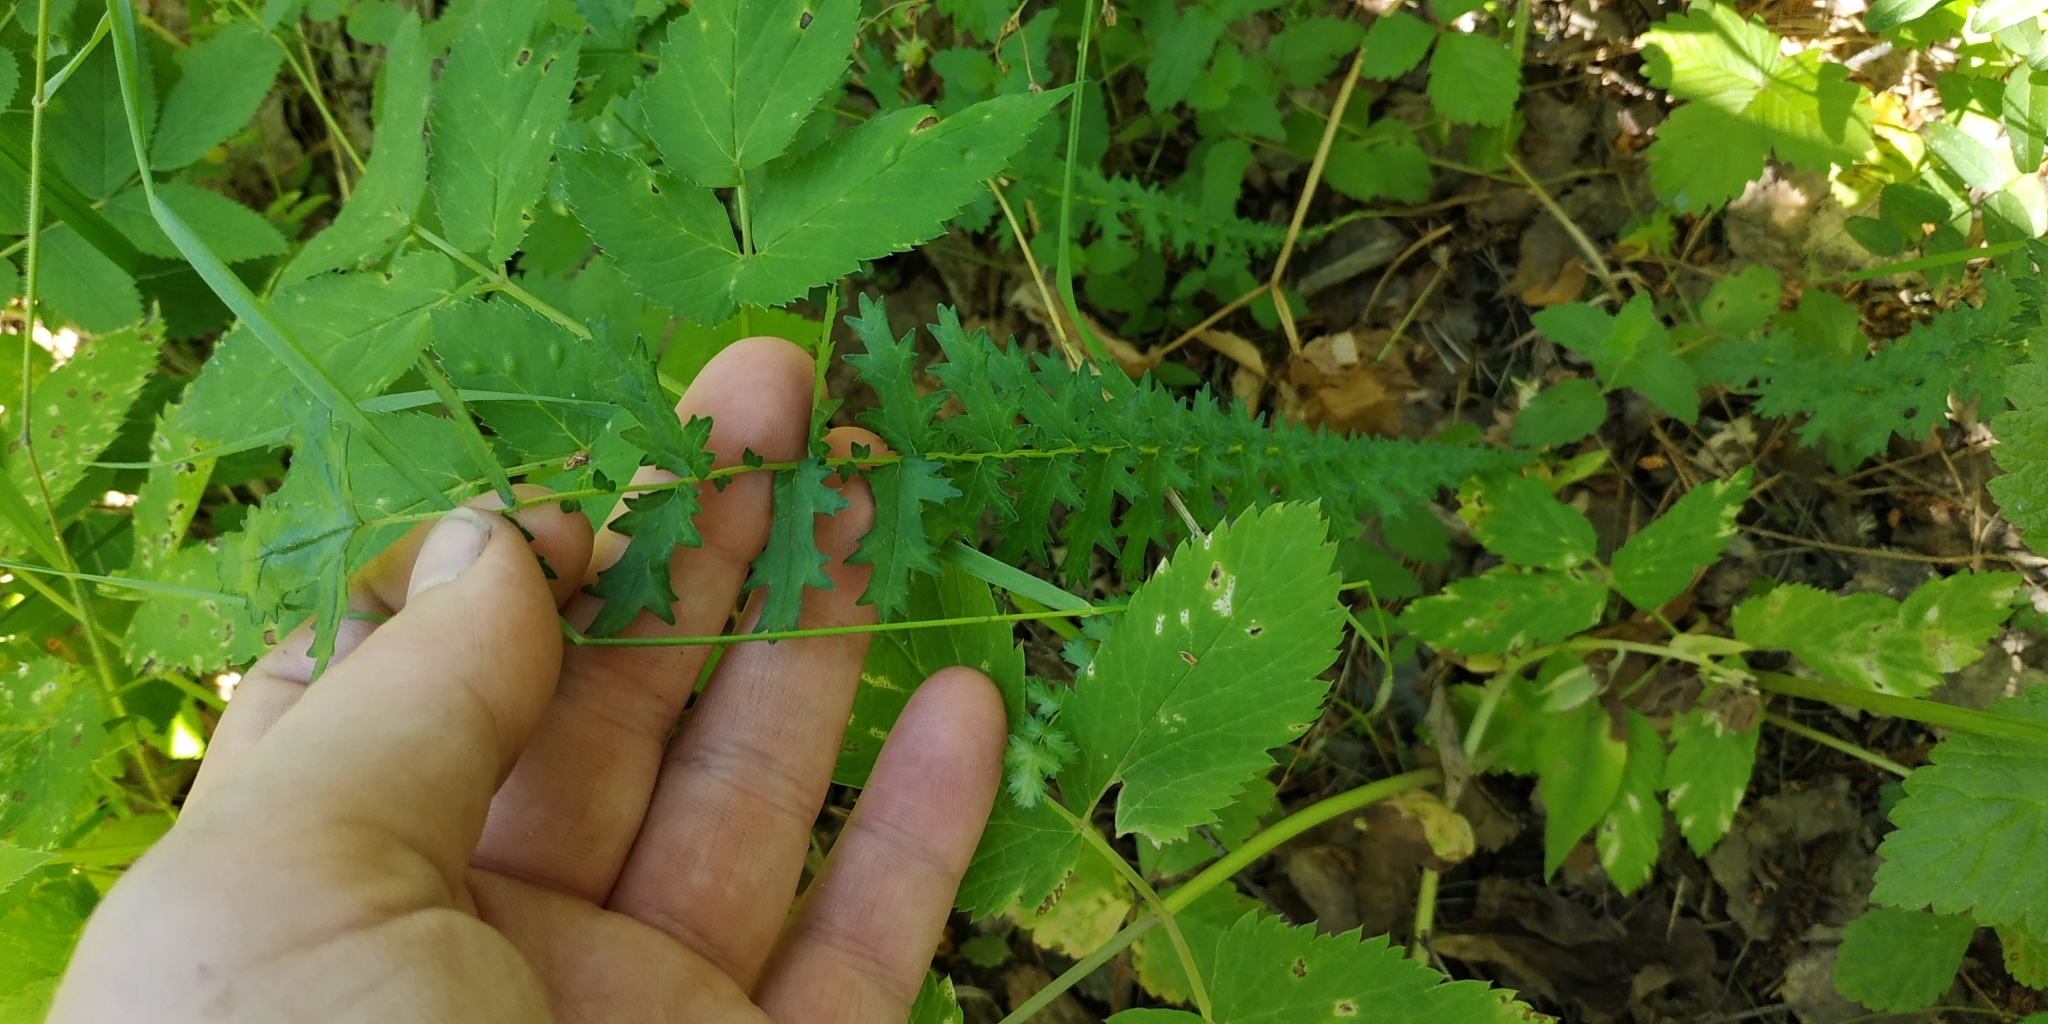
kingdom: Plantae
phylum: Tracheophyta
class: Magnoliopsida
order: Rosales
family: Rosaceae
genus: Filipendula
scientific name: Filipendula vulgaris
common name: Dropwort
